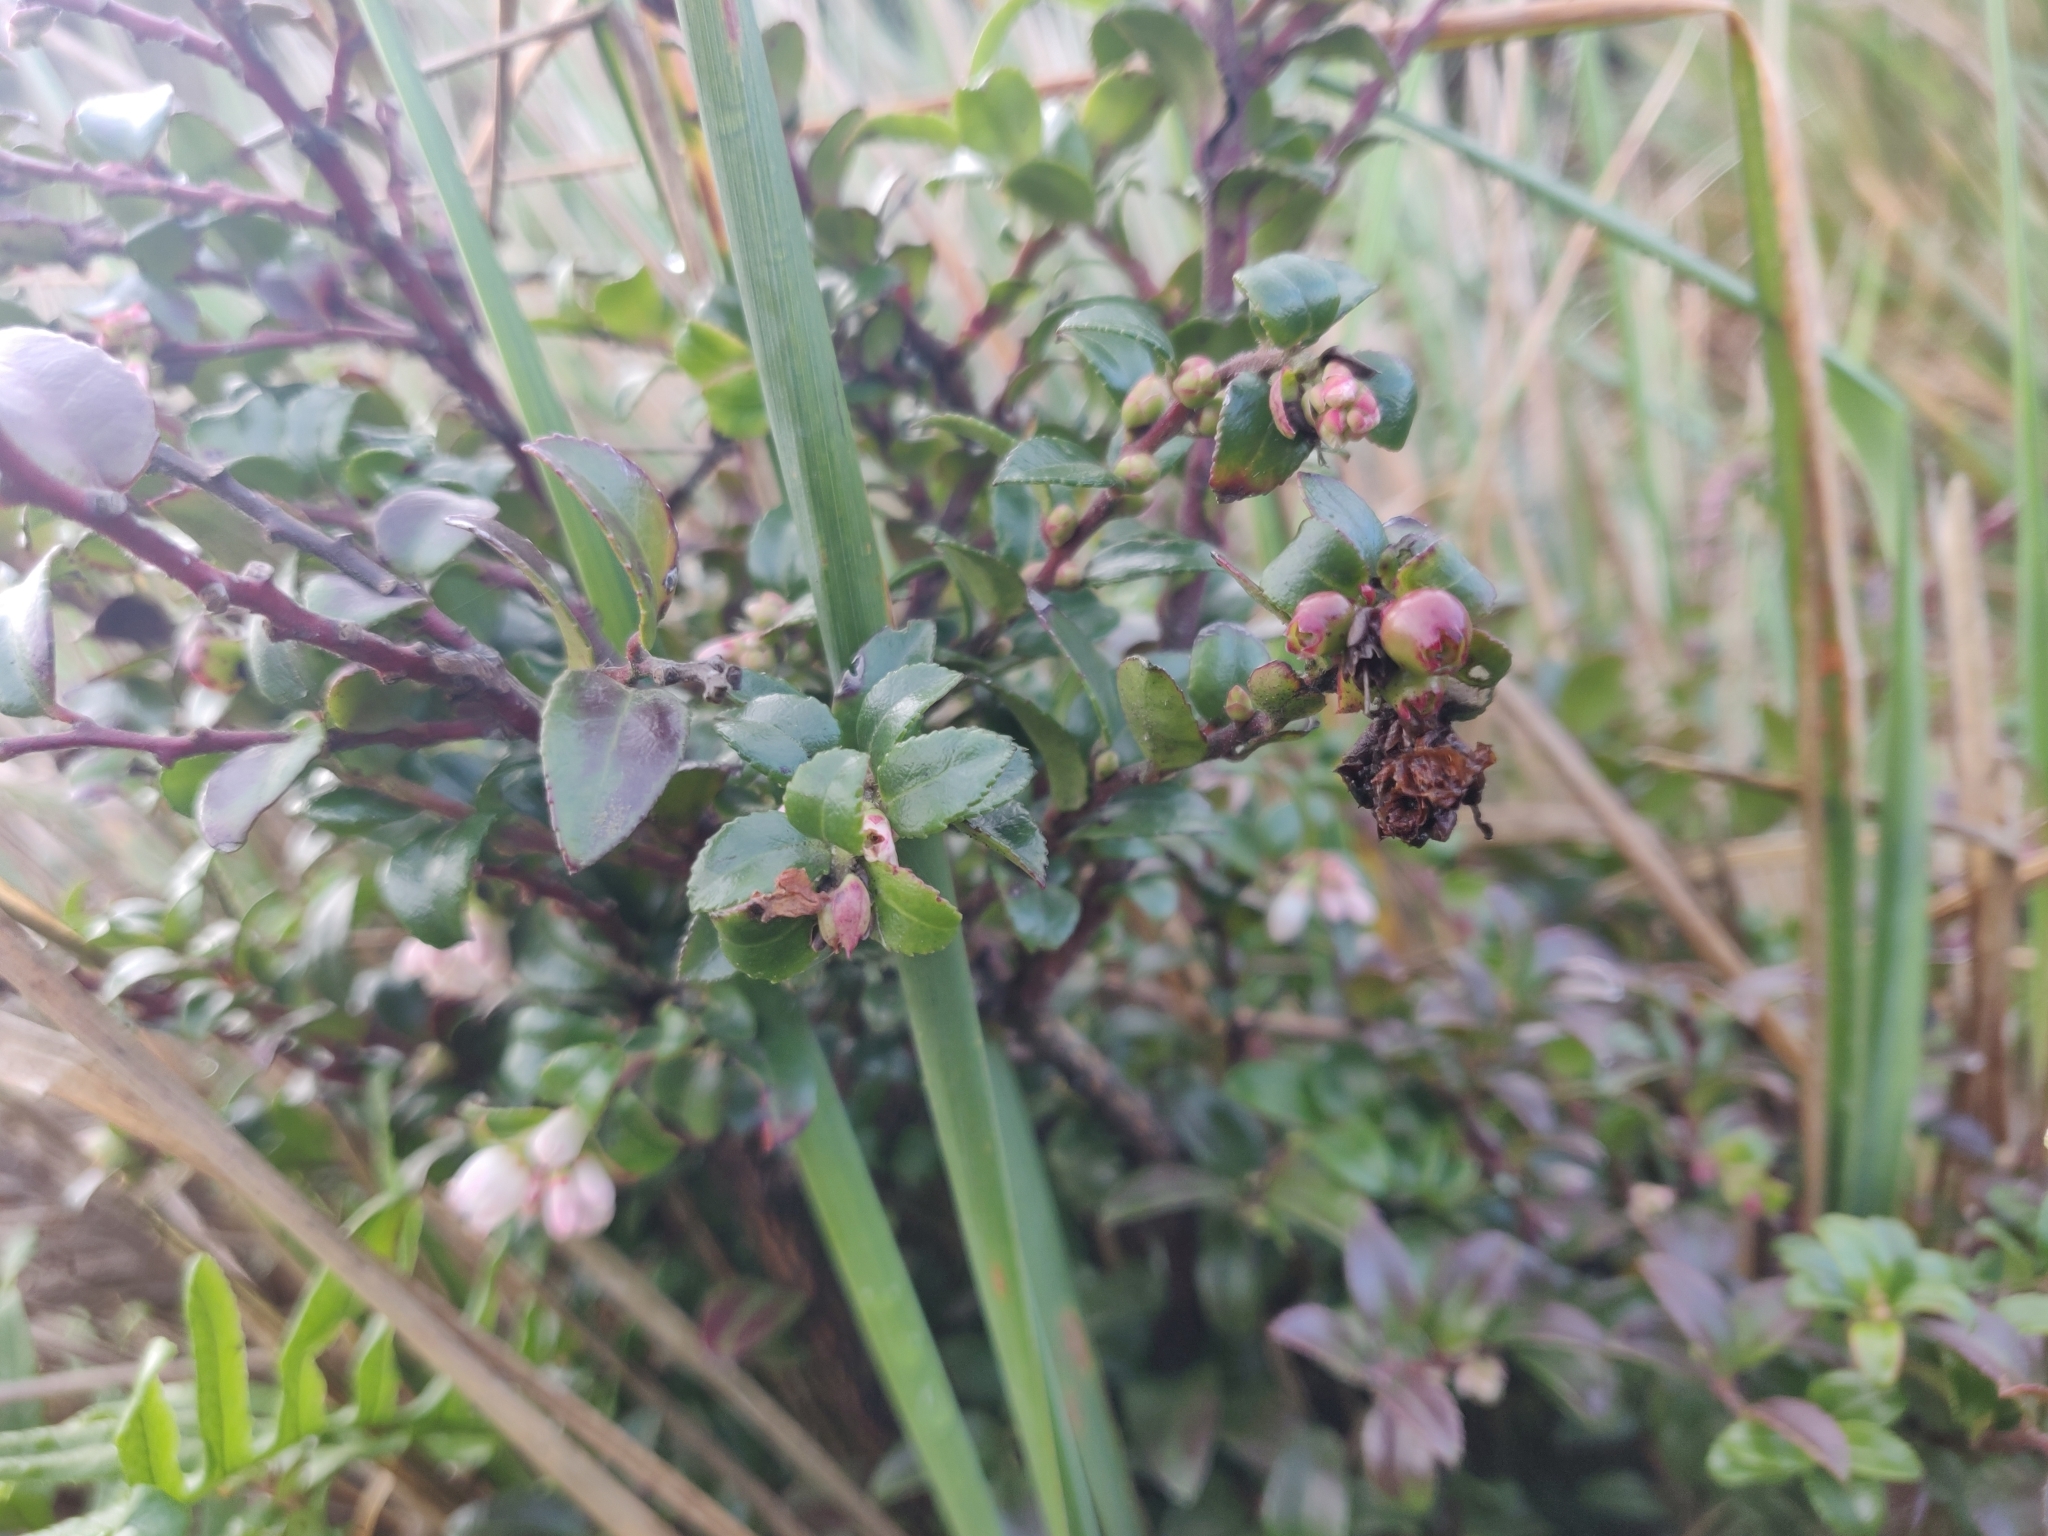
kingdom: Plantae
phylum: Tracheophyta
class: Magnoliopsida
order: Ericales
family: Ericaceae
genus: Vaccinium
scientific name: Vaccinium ovatum
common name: California-huckleberry
